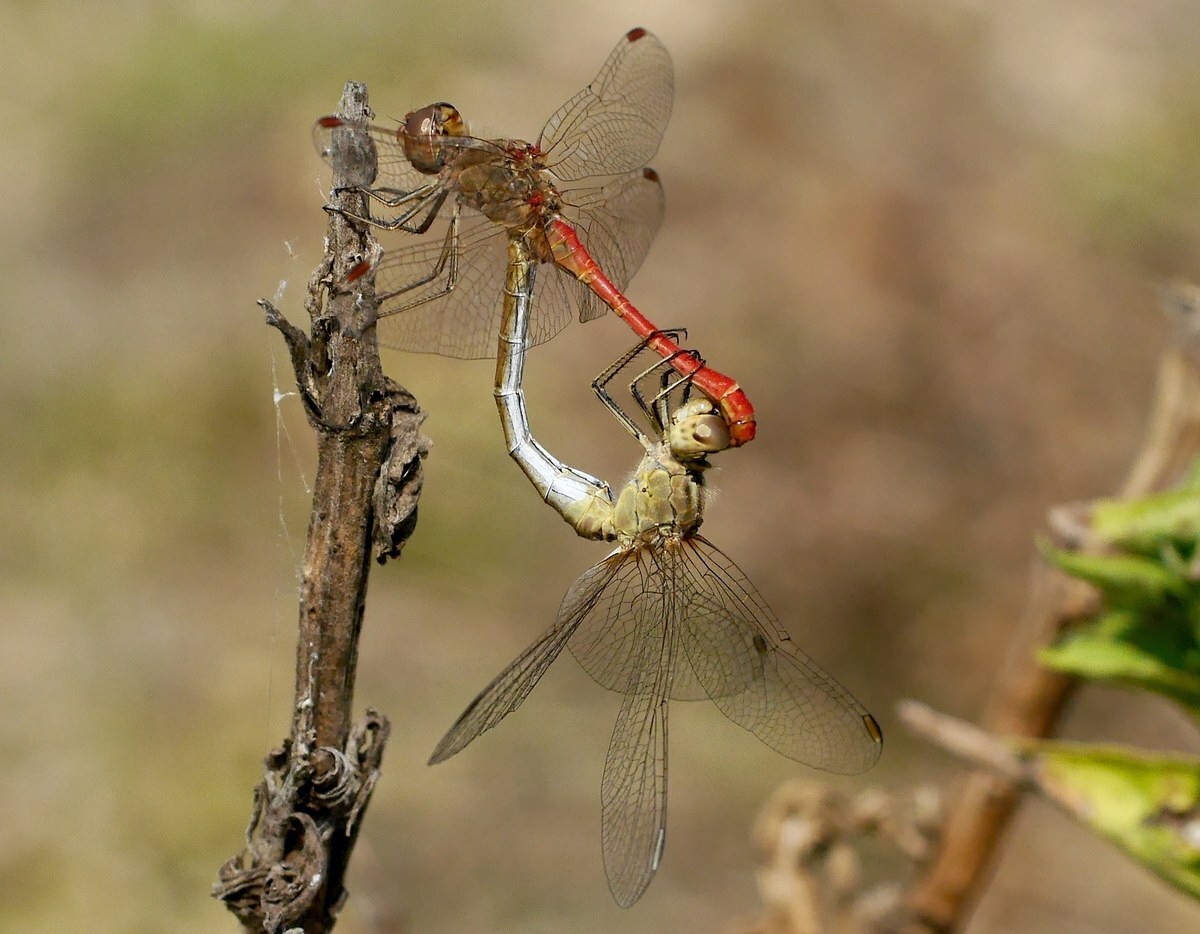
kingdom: Animalia
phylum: Arthropoda
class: Insecta
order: Odonata
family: Libellulidae
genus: Sympetrum
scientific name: Sympetrum meridionale
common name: Southern darter
